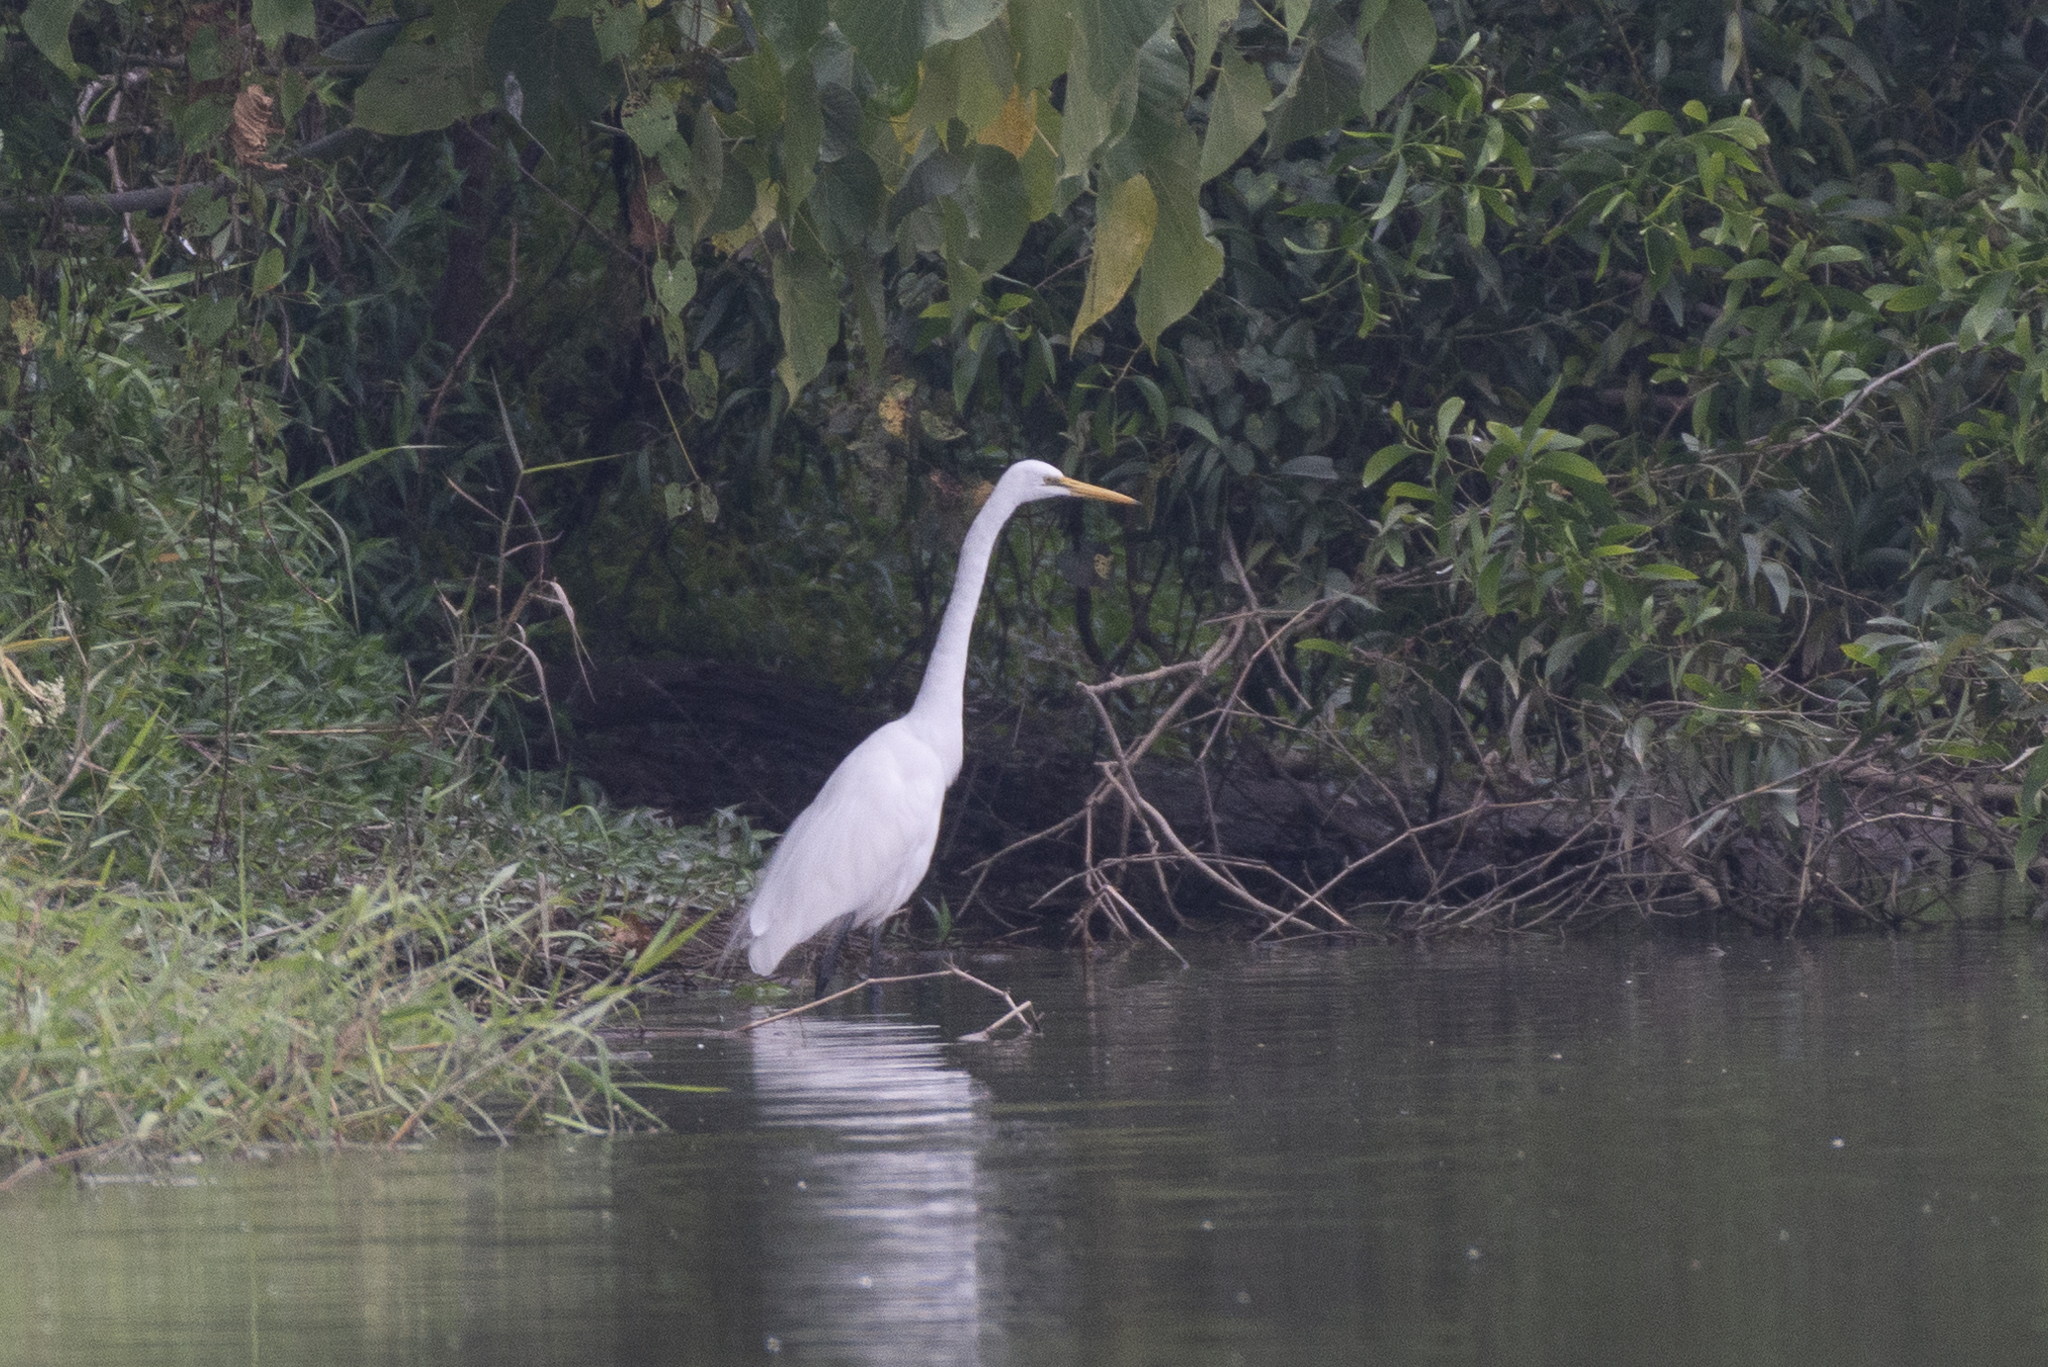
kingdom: Animalia
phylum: Chordata
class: Aves
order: Pelecaniformes
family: Ardeidae
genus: Ardea
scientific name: Ardea alba
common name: Great egret
